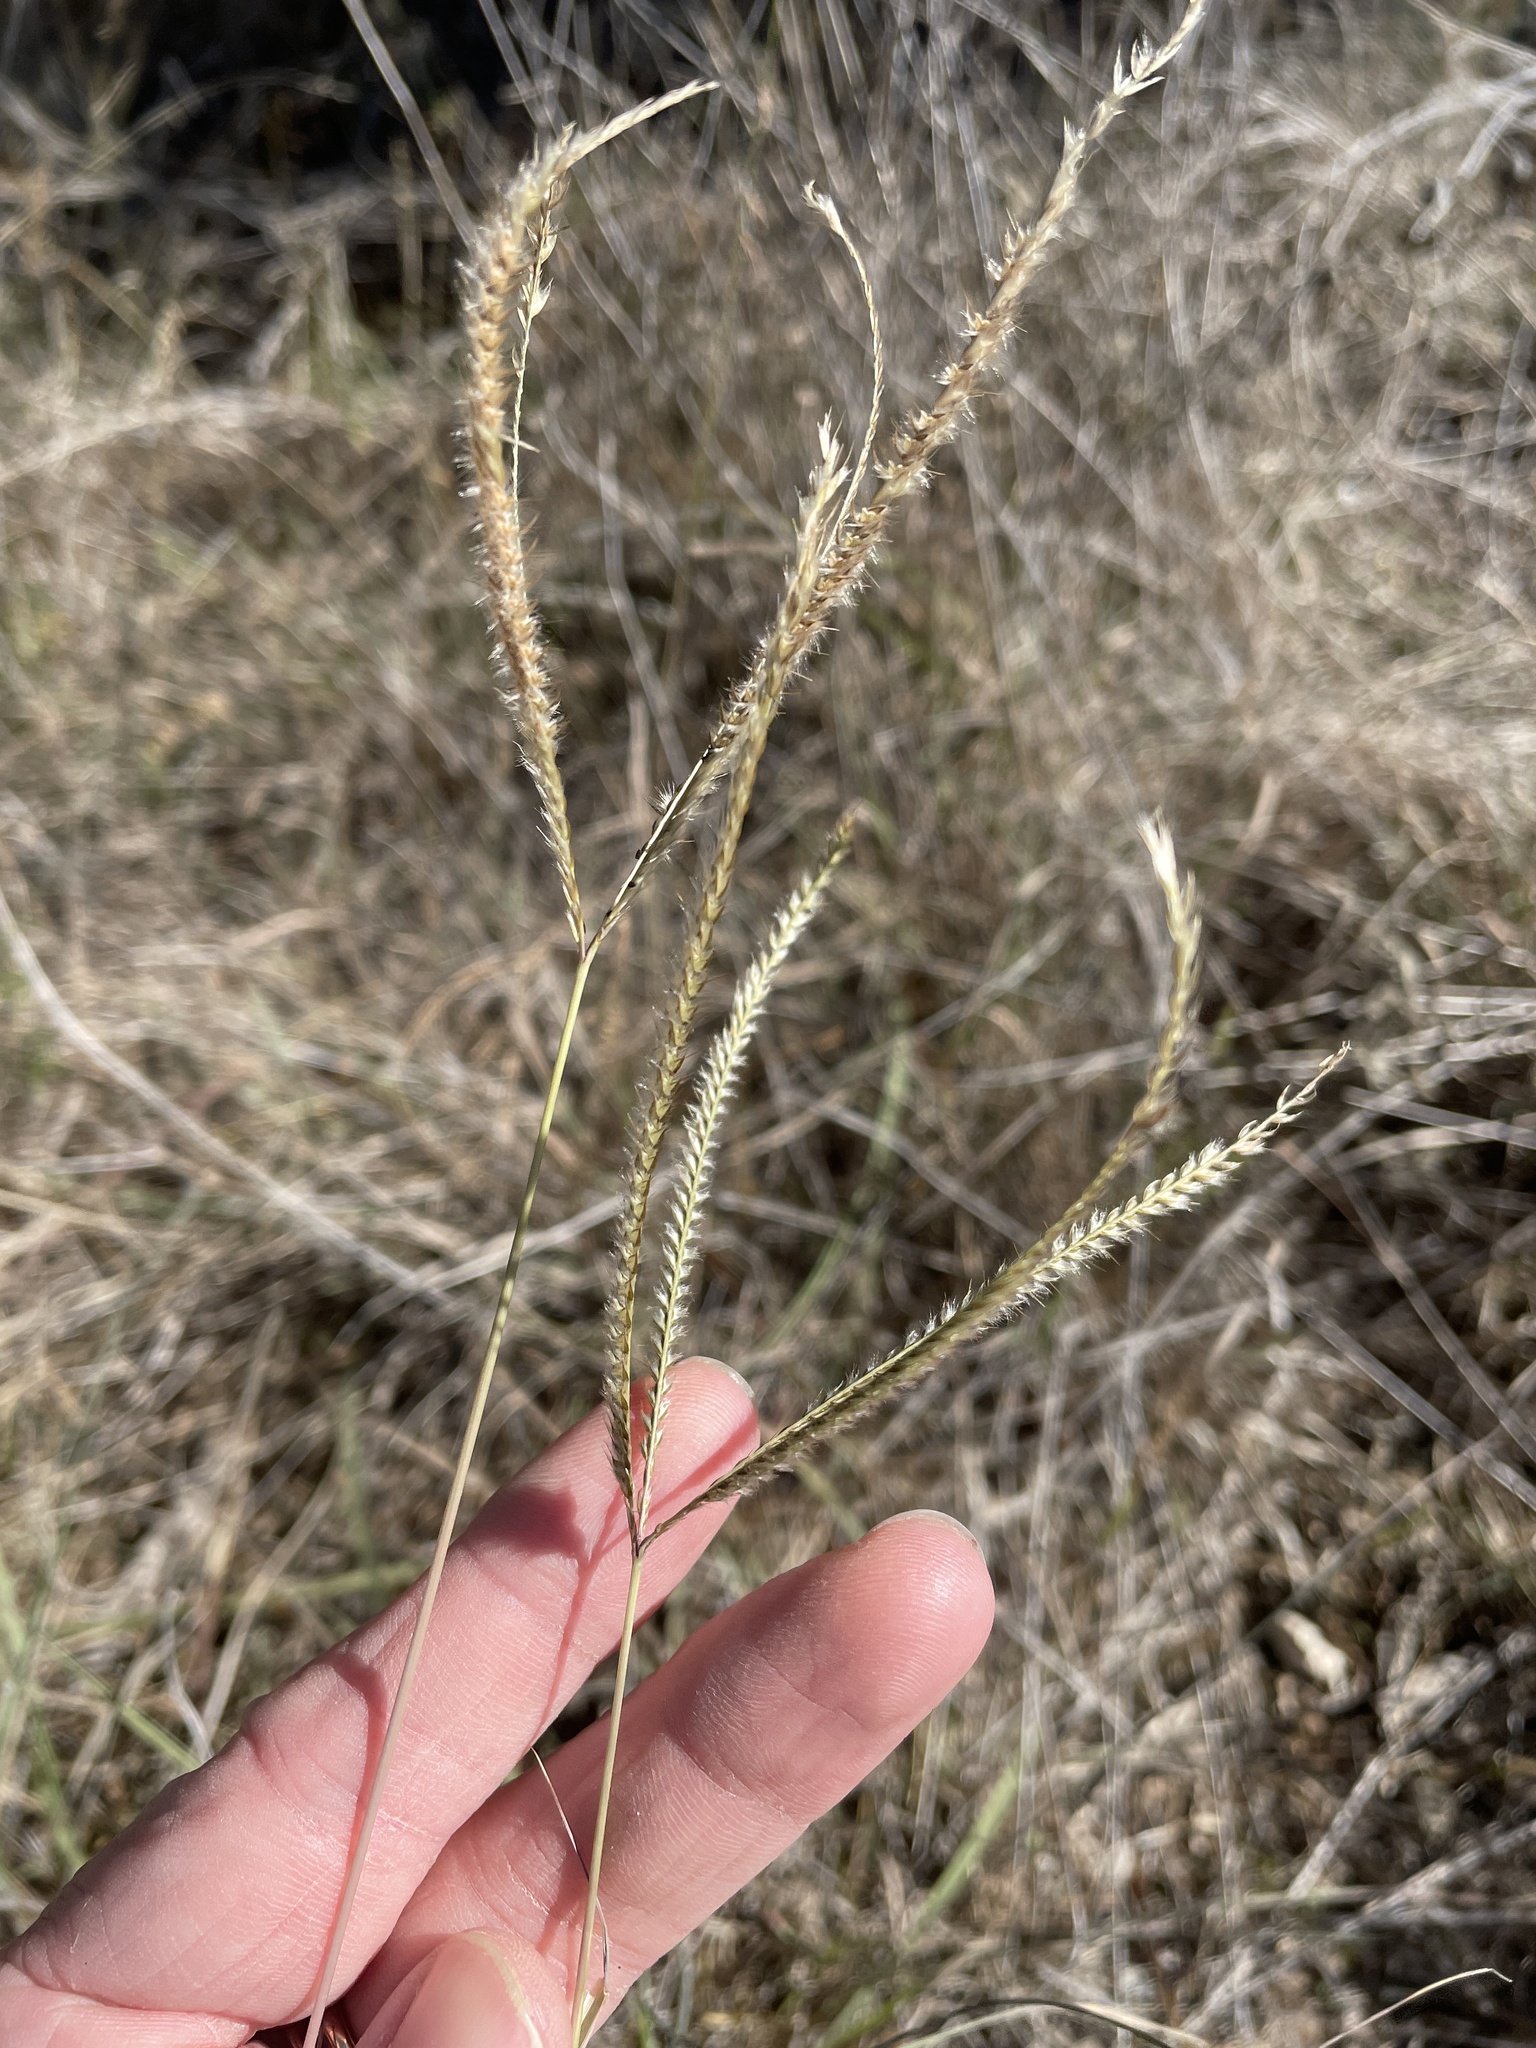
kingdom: Plantae
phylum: Tracheophyta
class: Liliopsida
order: Poales
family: Poaceae
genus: Stapfochloa
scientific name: Stapfochloa canterae
